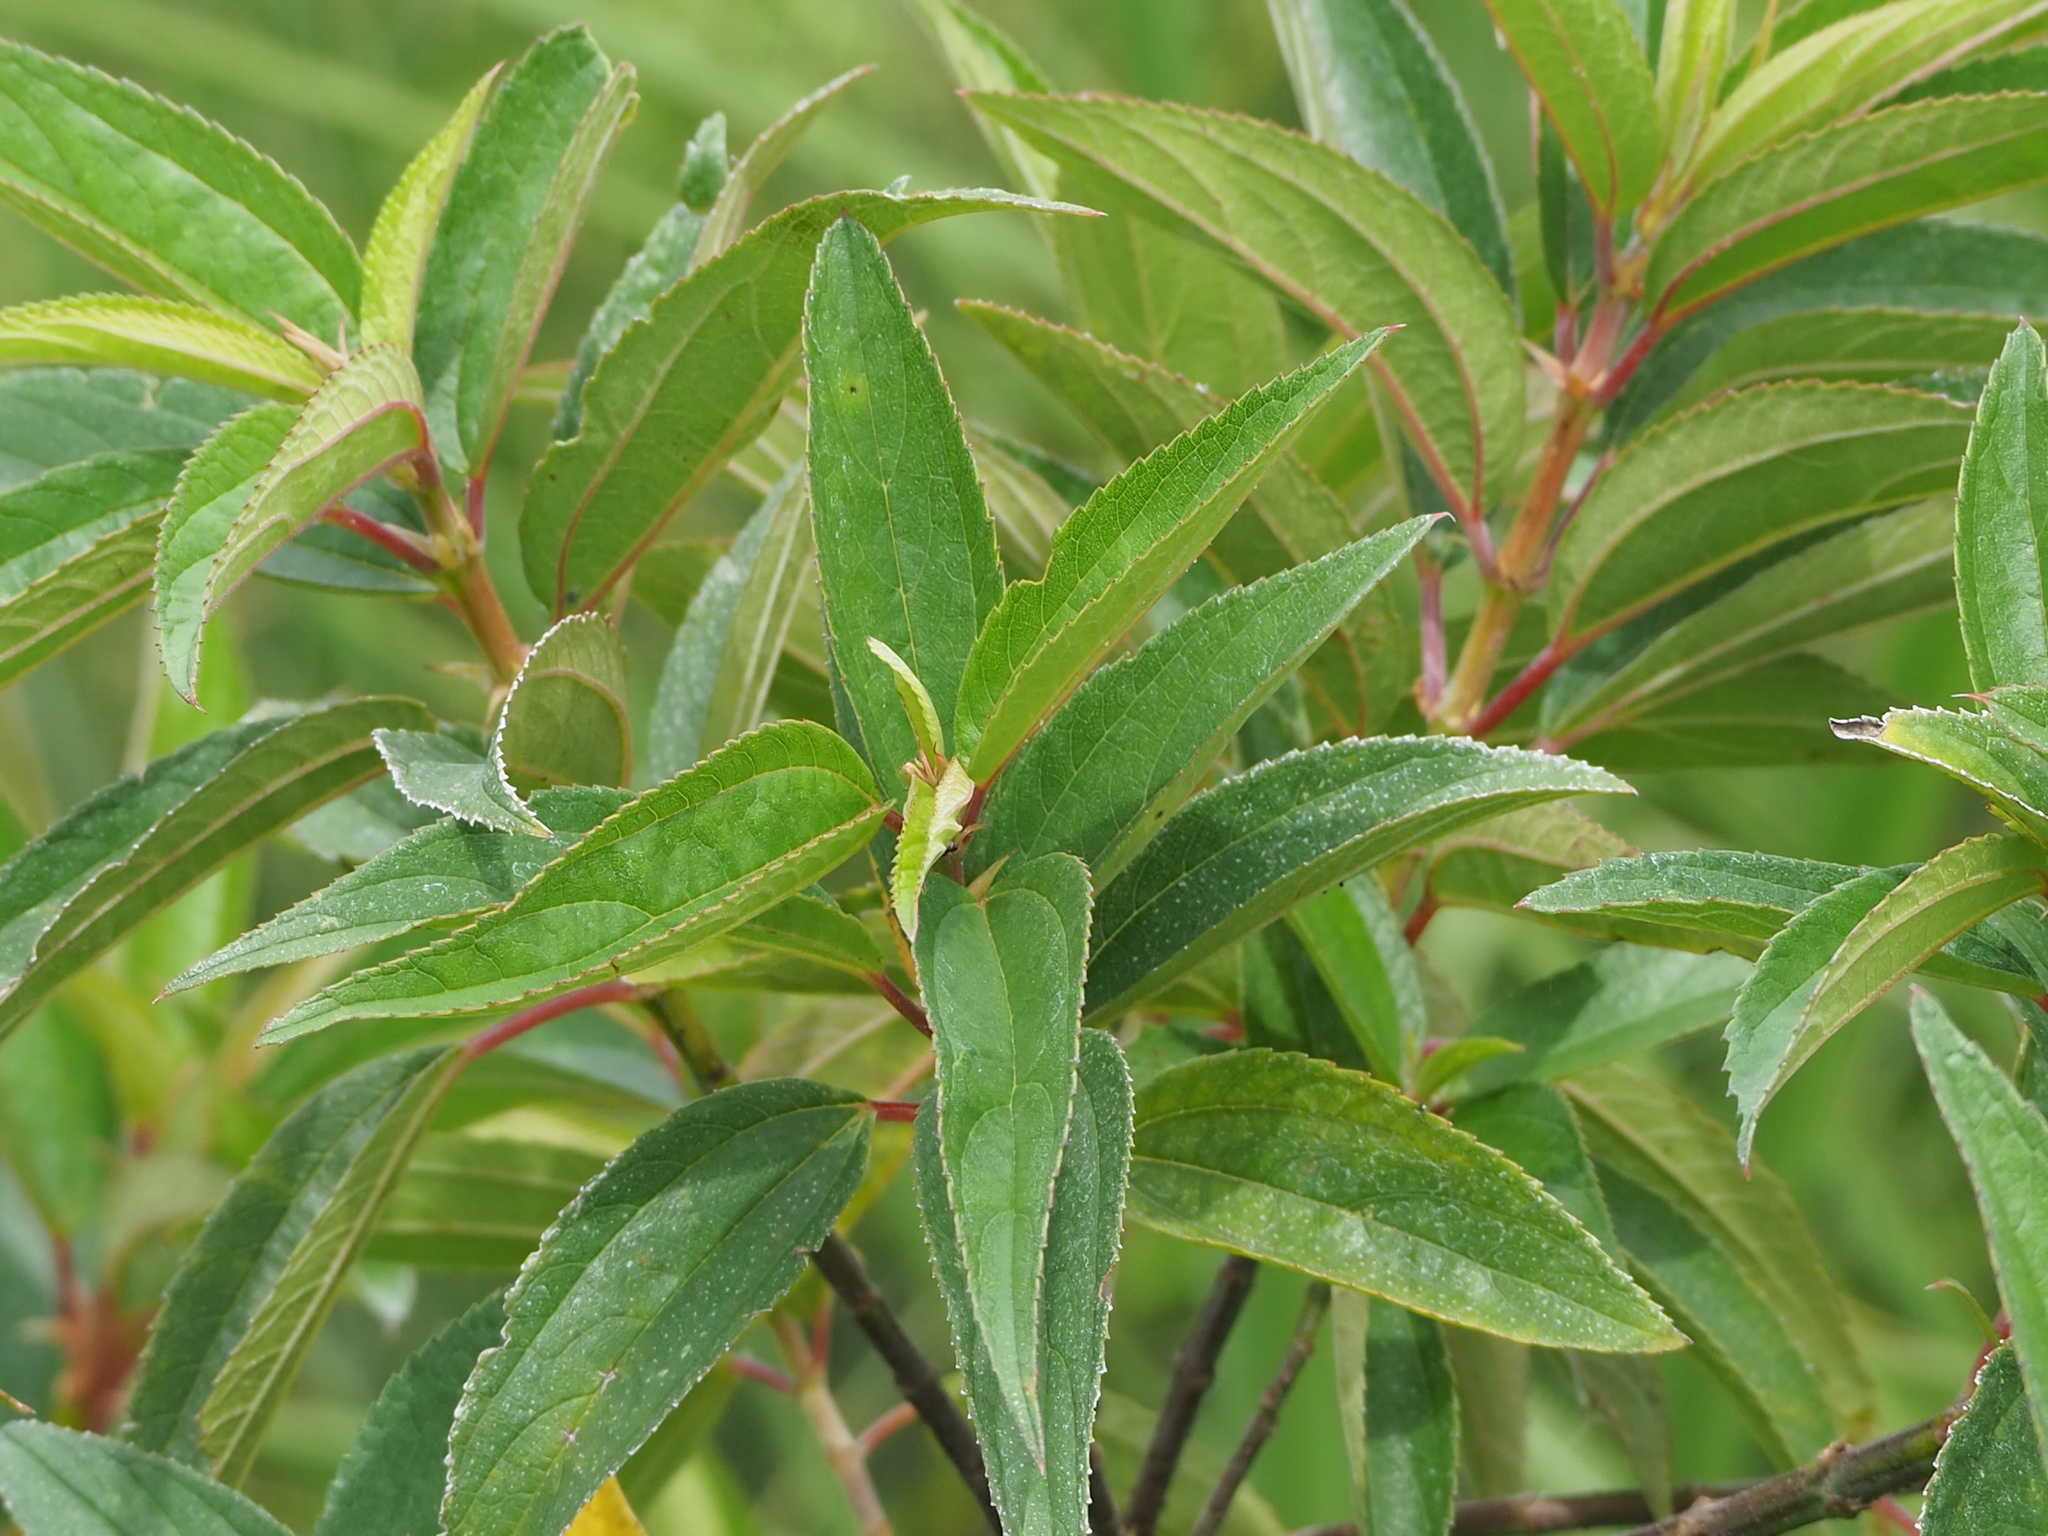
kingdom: Plantae
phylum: Tracheophyta
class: Magnoliopsida
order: Rosales
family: Urticaceae
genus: Boehmeria
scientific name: Boehmeria densiflora
